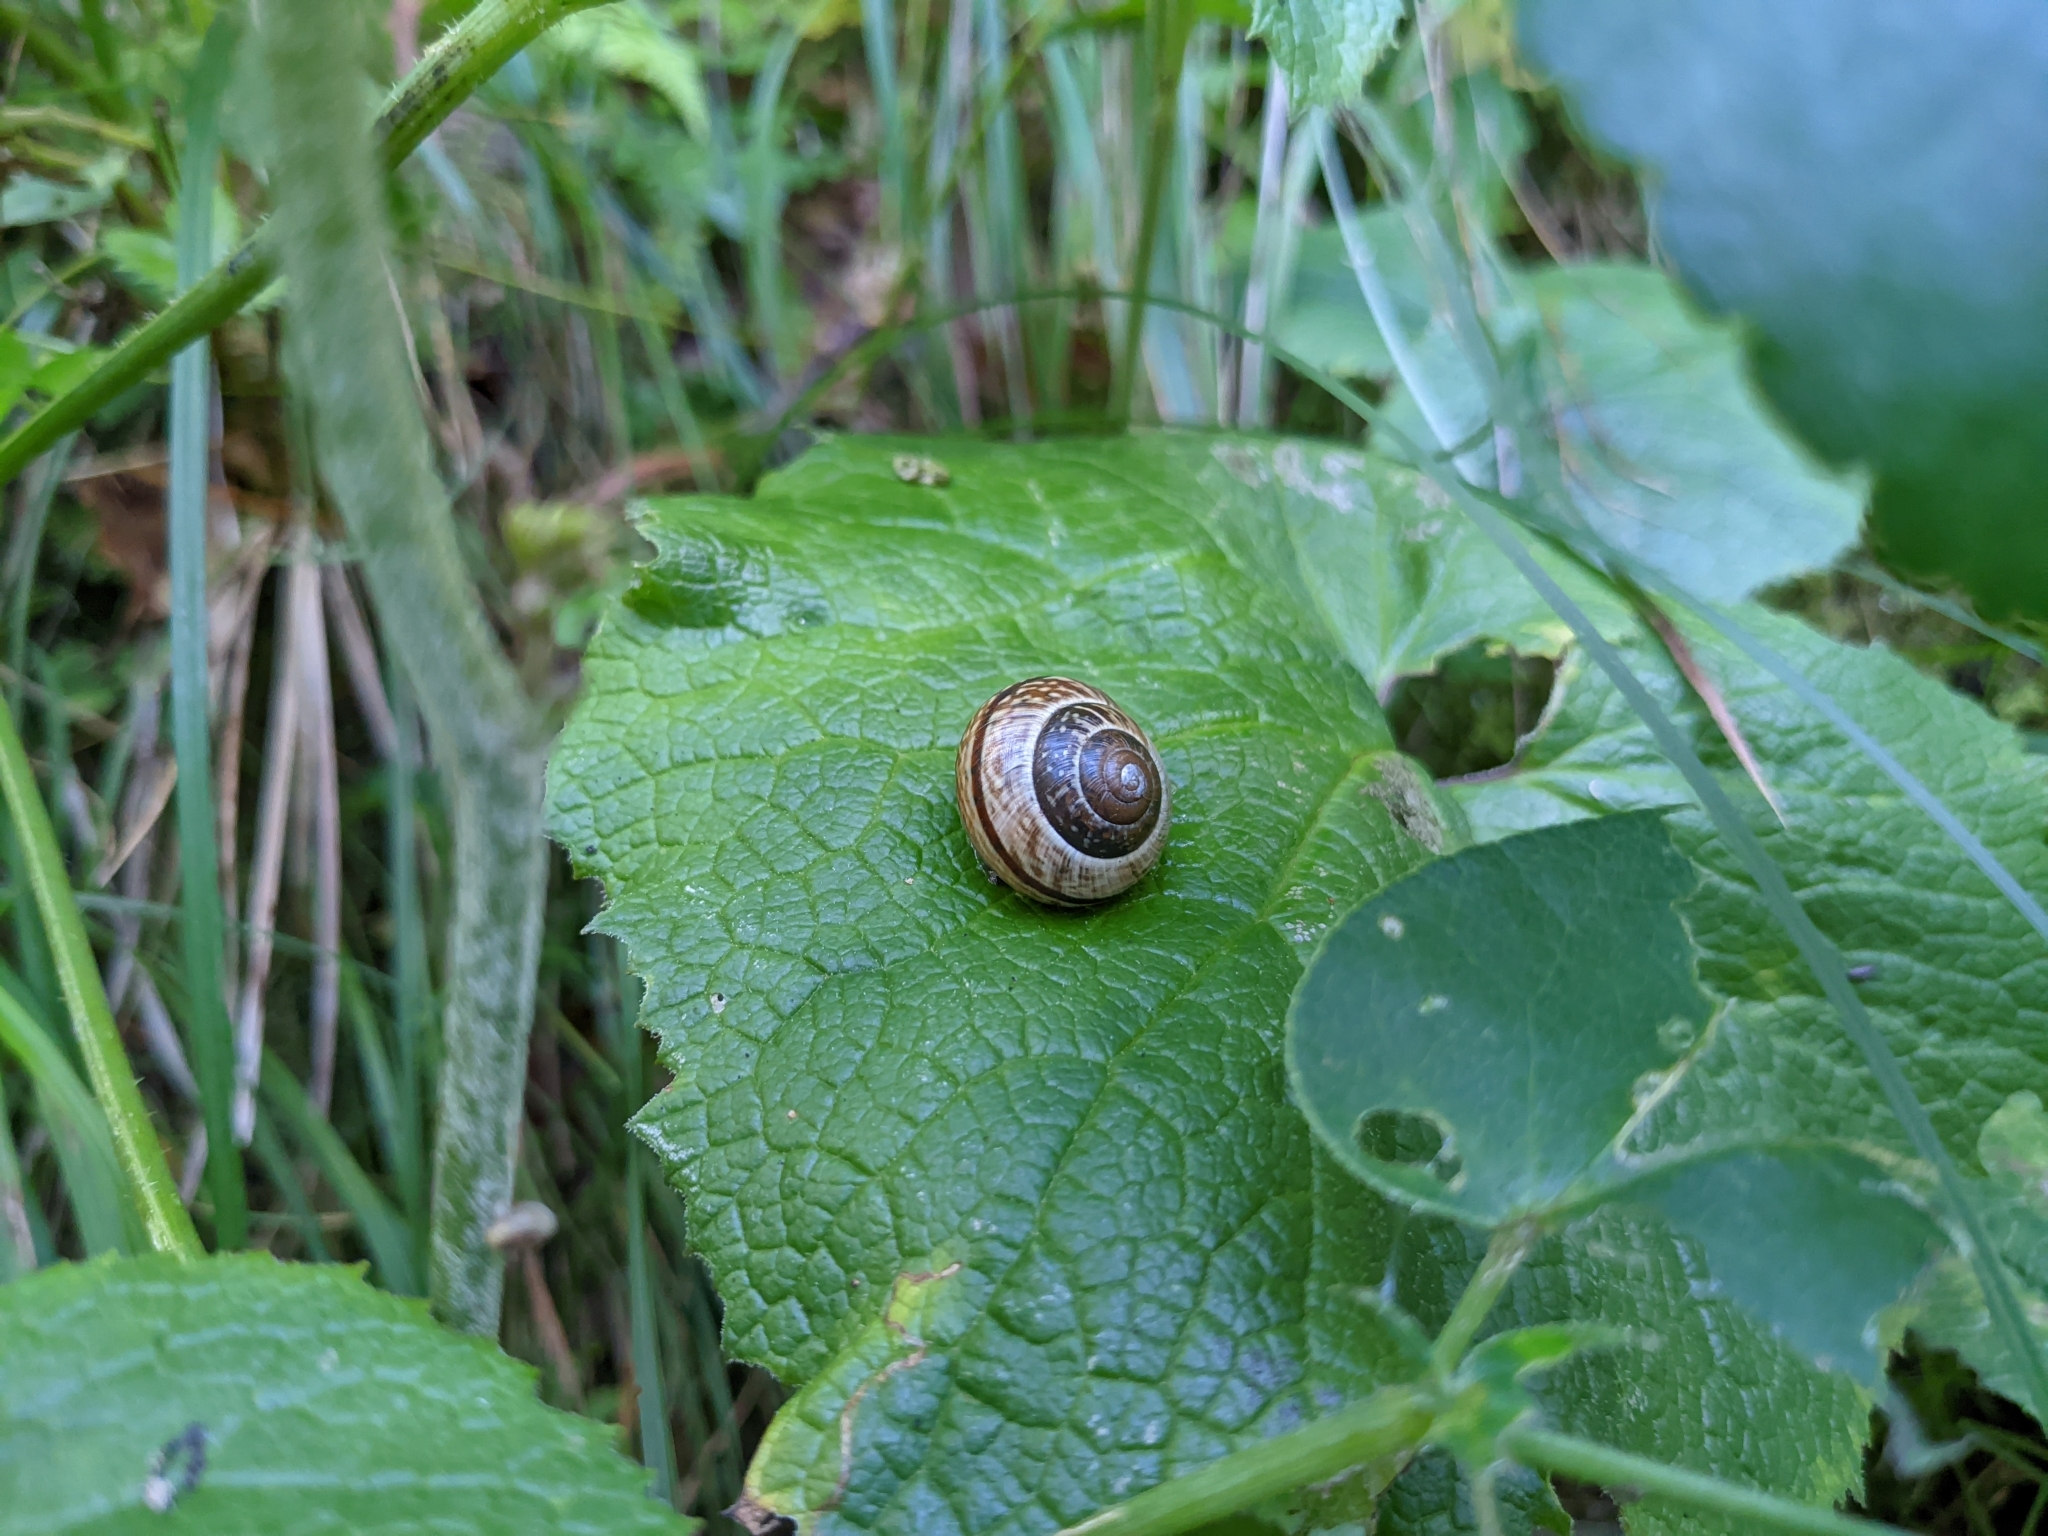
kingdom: Animalia
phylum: Mollusca
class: Gastropoda
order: Stylommatophora
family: Helicidae
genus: Arianta
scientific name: Arianta arbustorum
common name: Copse snail
